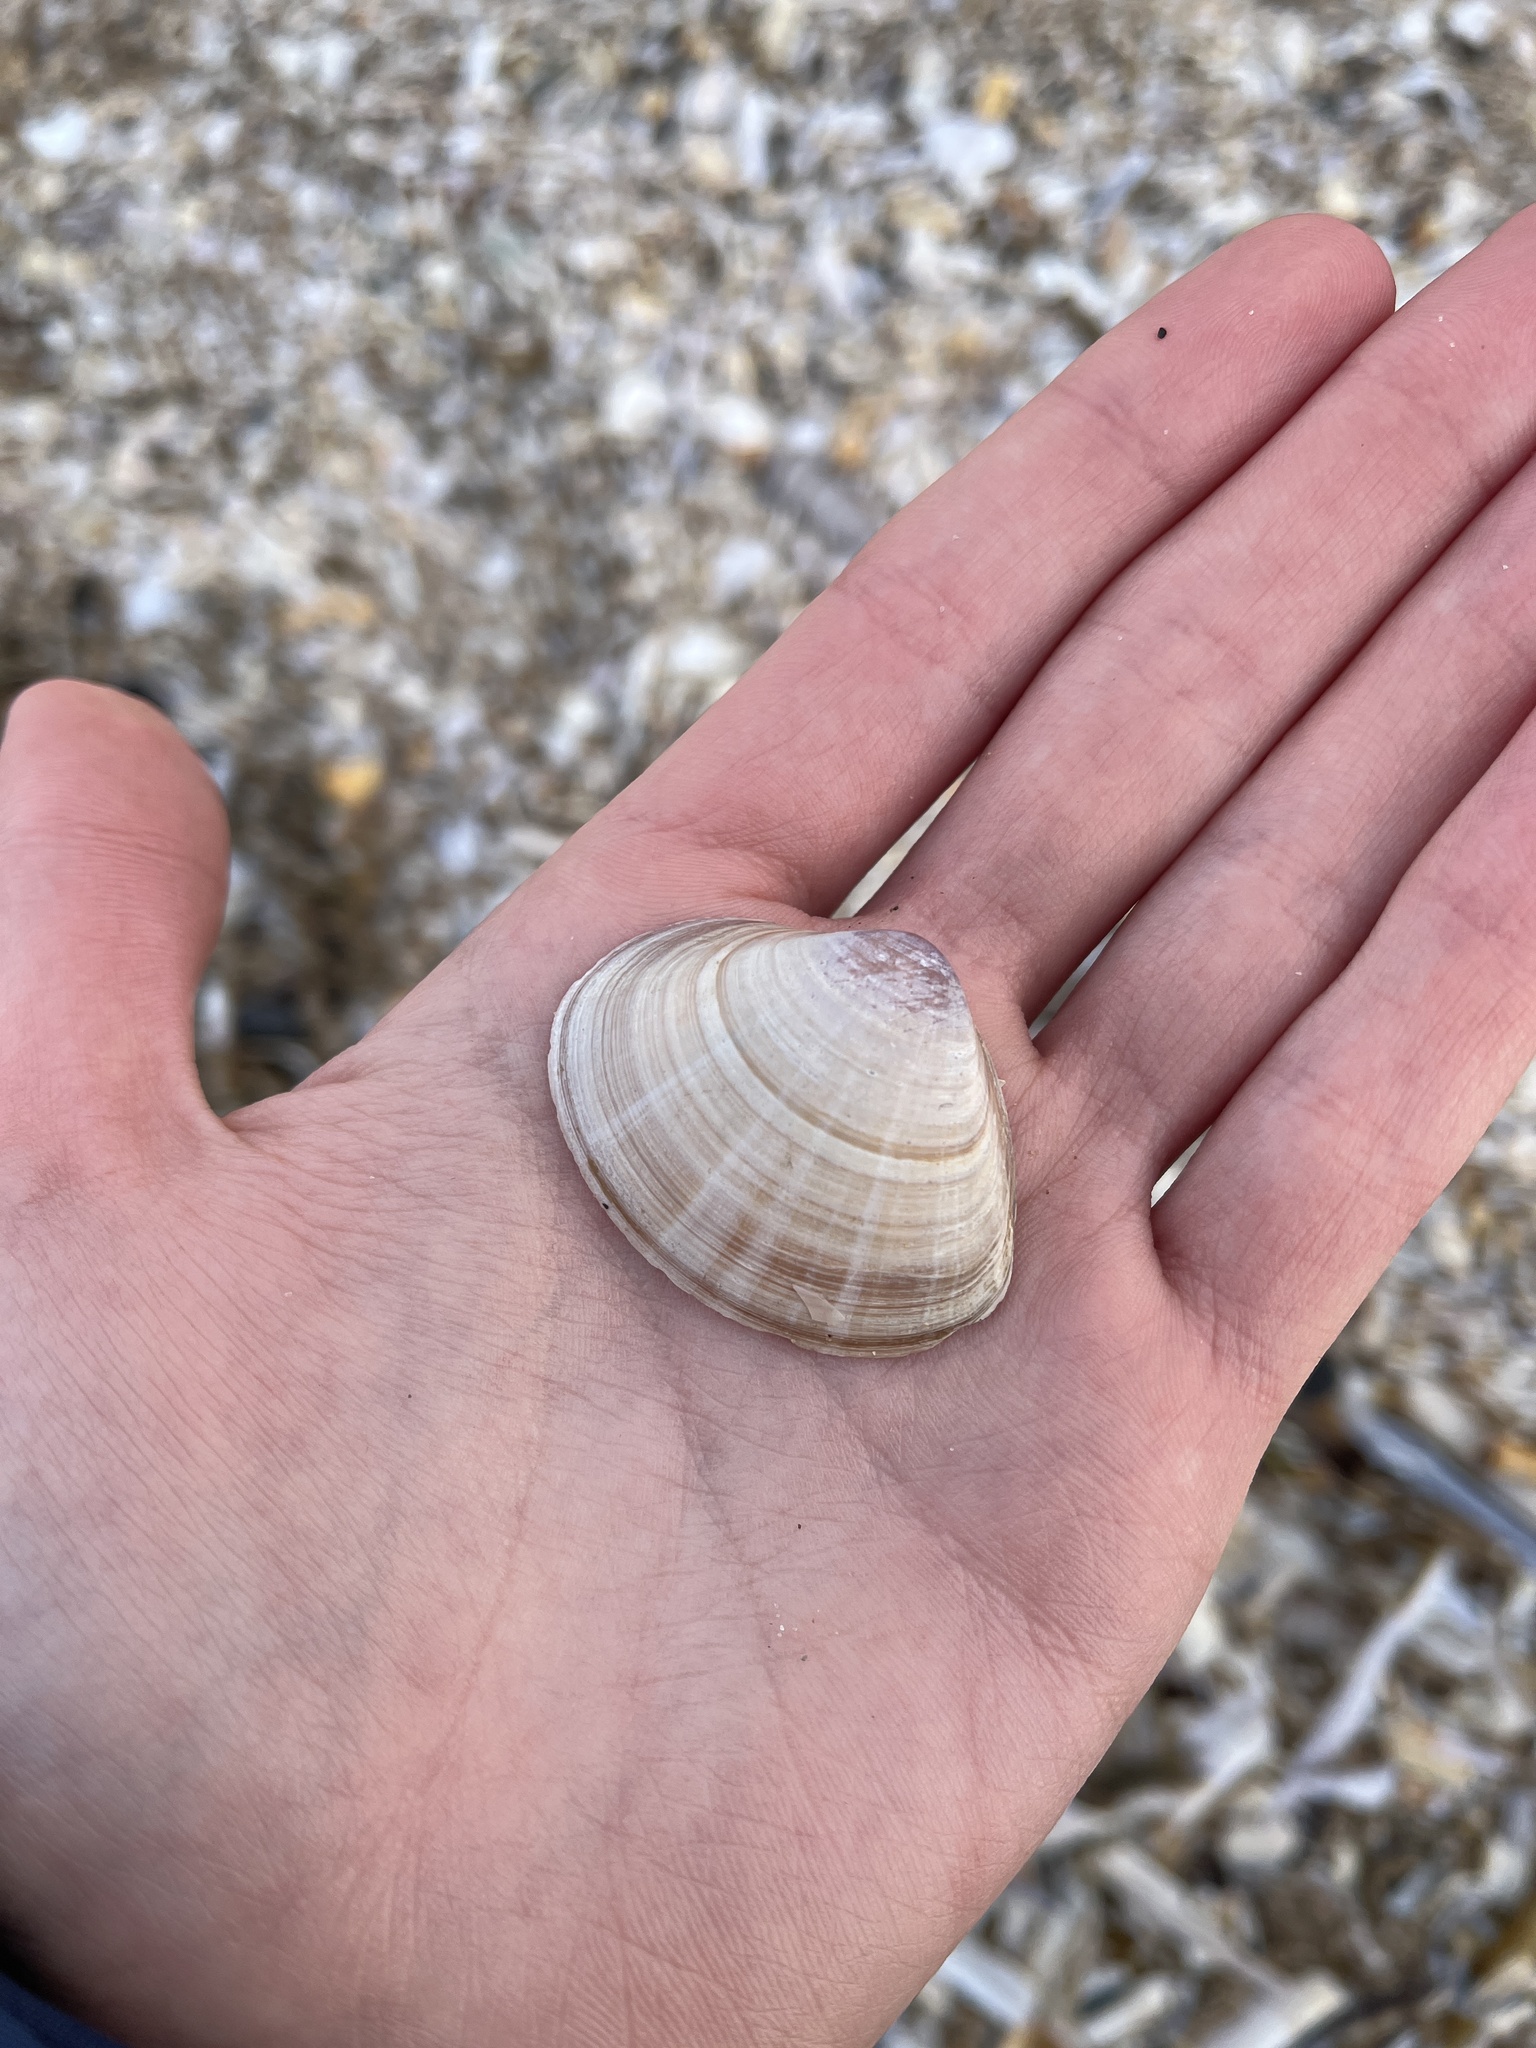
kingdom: Animalia
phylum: Mollusca
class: Bivalvia
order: Venerida
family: Mactridae
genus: Mactra
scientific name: Mactra stultorum
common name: Rayed trough shell
